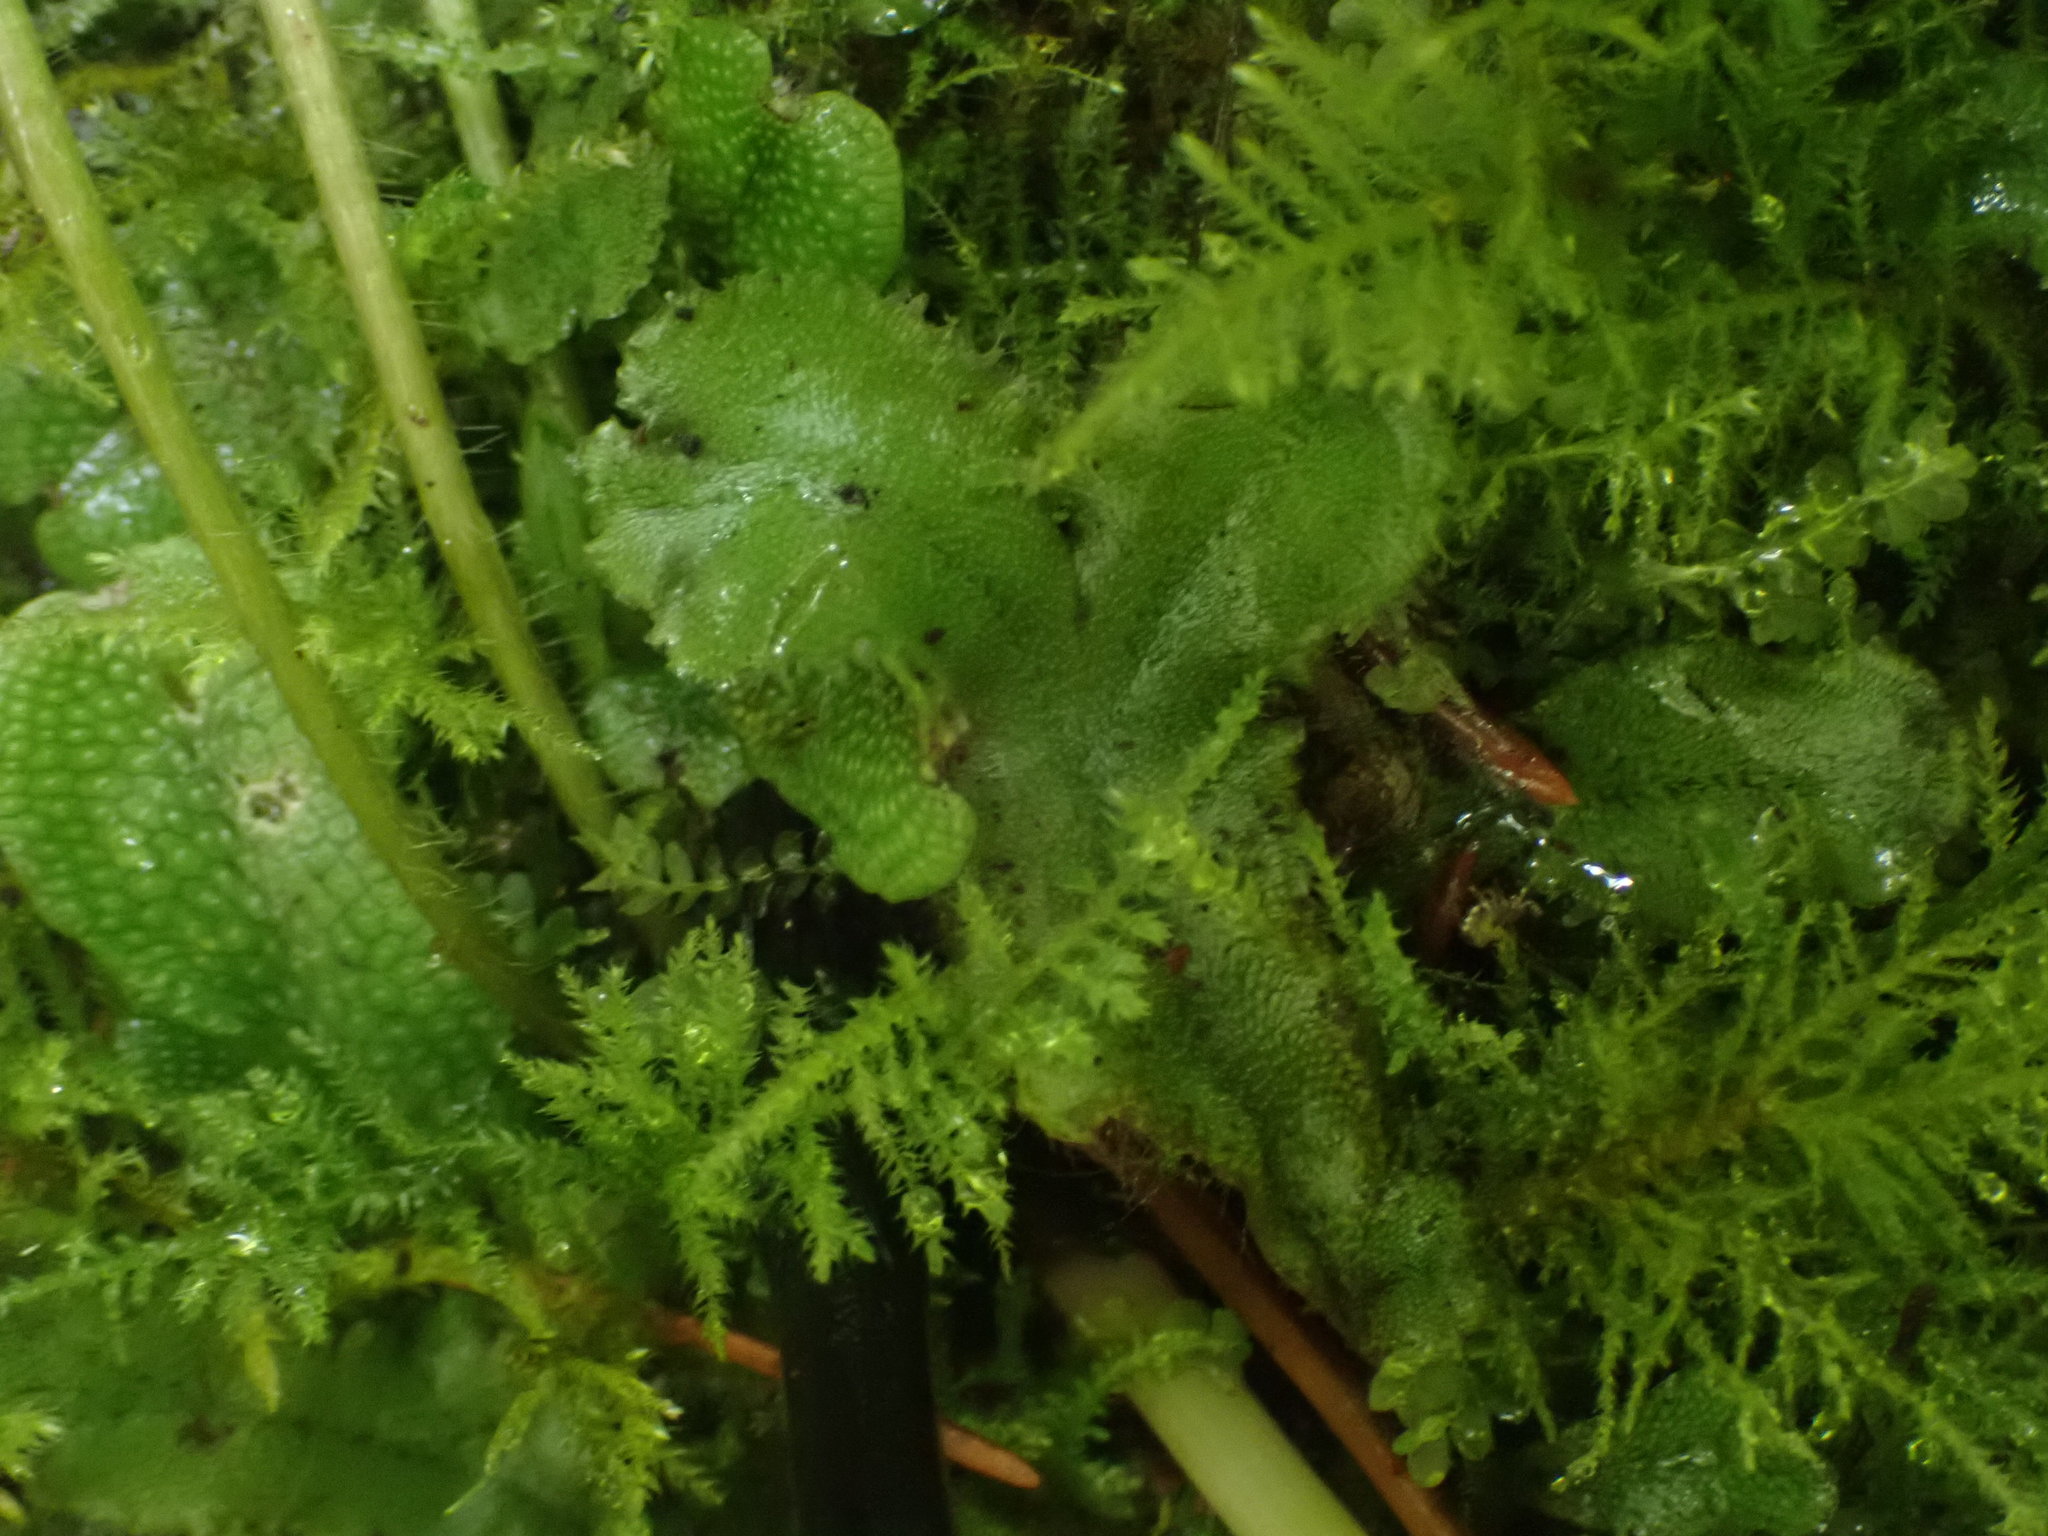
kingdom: Plantae
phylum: Marchantiophyta
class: Marchantiopsida
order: Marchantiales
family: Marchantiaceae
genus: Marchantia
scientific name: Marchantia polymorpha
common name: Common liverwort
